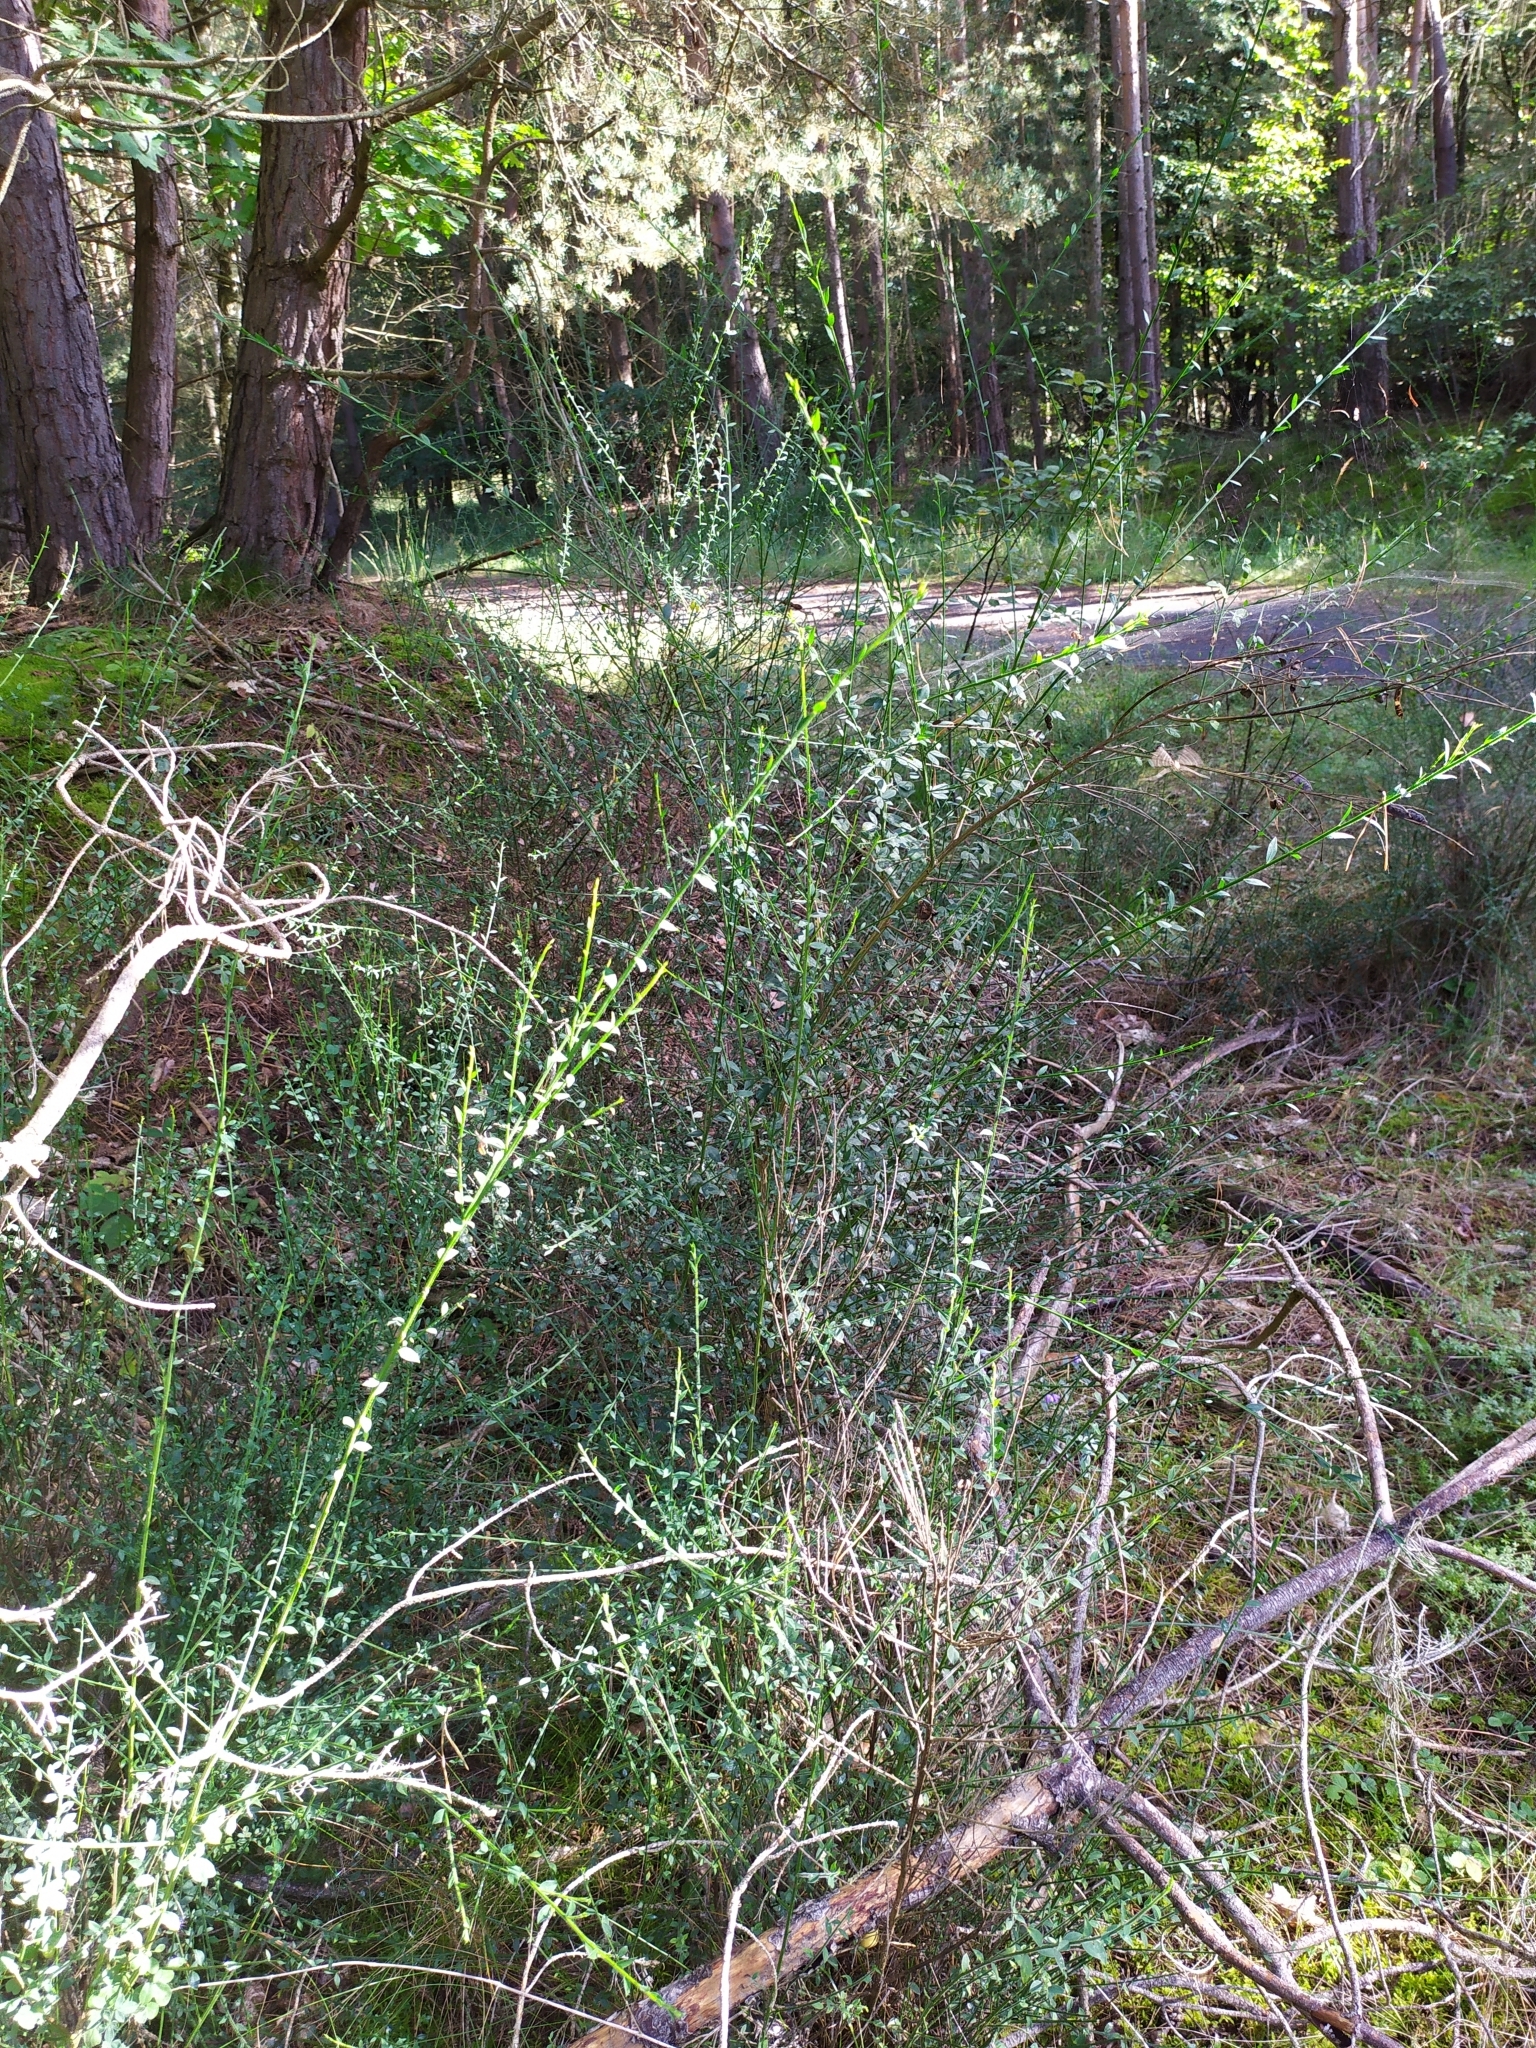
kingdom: Plantae
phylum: Tracheophyta
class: Magnoliopsida
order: Fabales
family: Fabaceae
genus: Cytisus
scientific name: Cytisus scoparius
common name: Scotch broom
